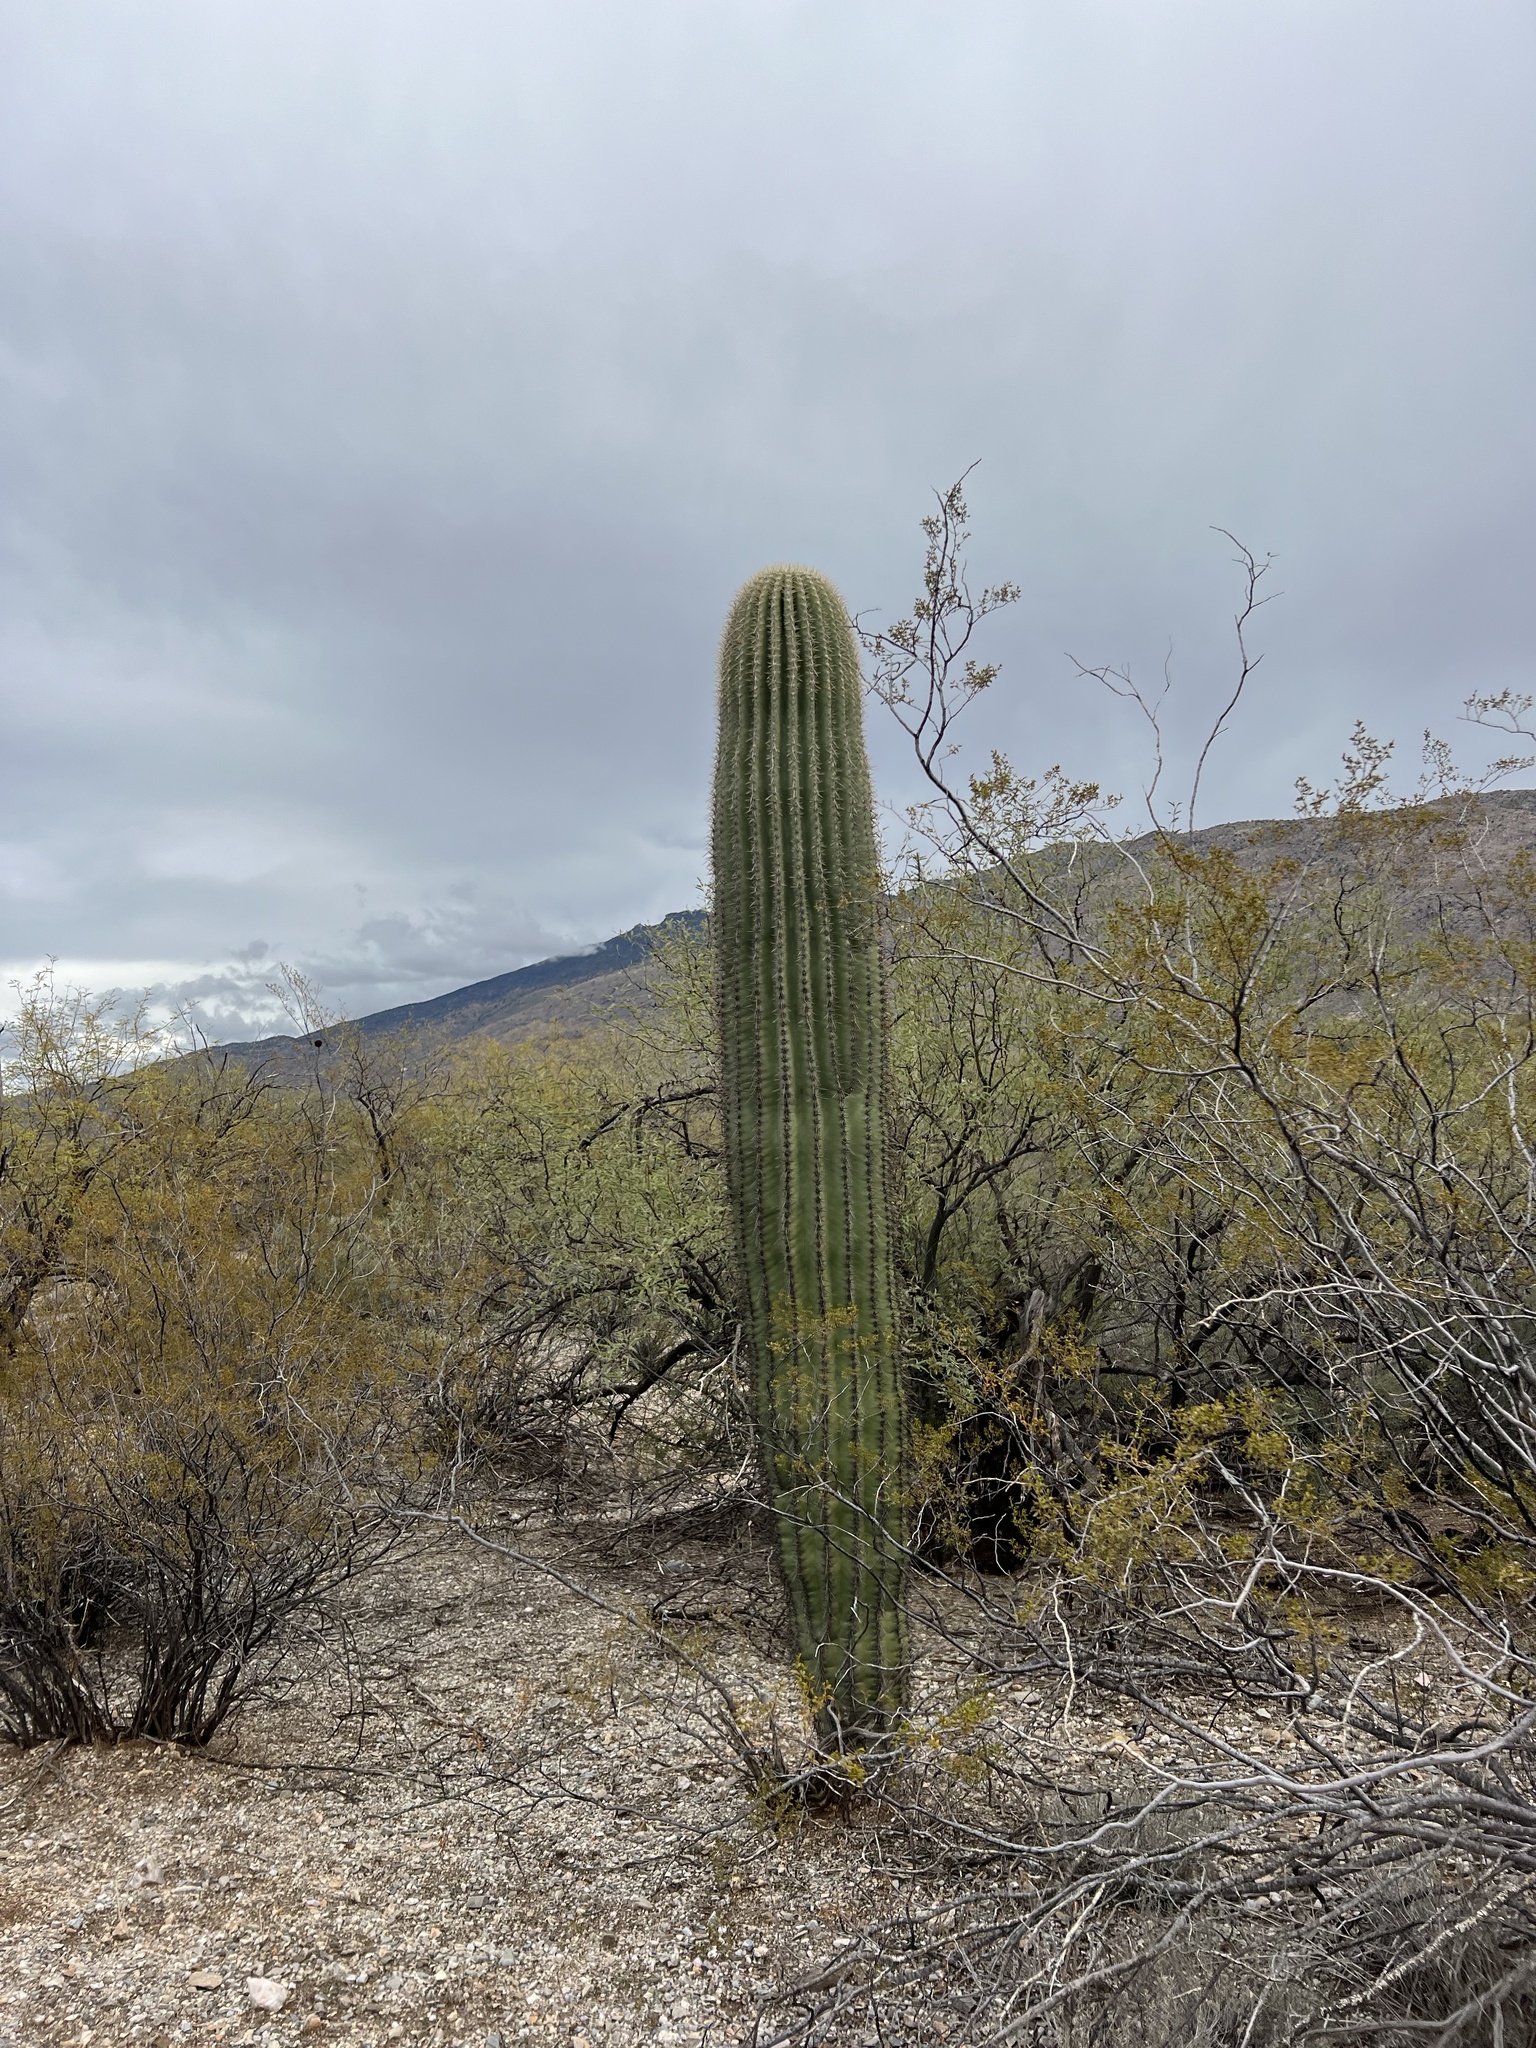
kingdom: Plantae
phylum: Tracheophyta
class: Magnoliopsida
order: Caryophyllales
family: Cactaceae
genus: Carnegiea
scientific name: Carnegiea gigantea
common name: Saguaro
